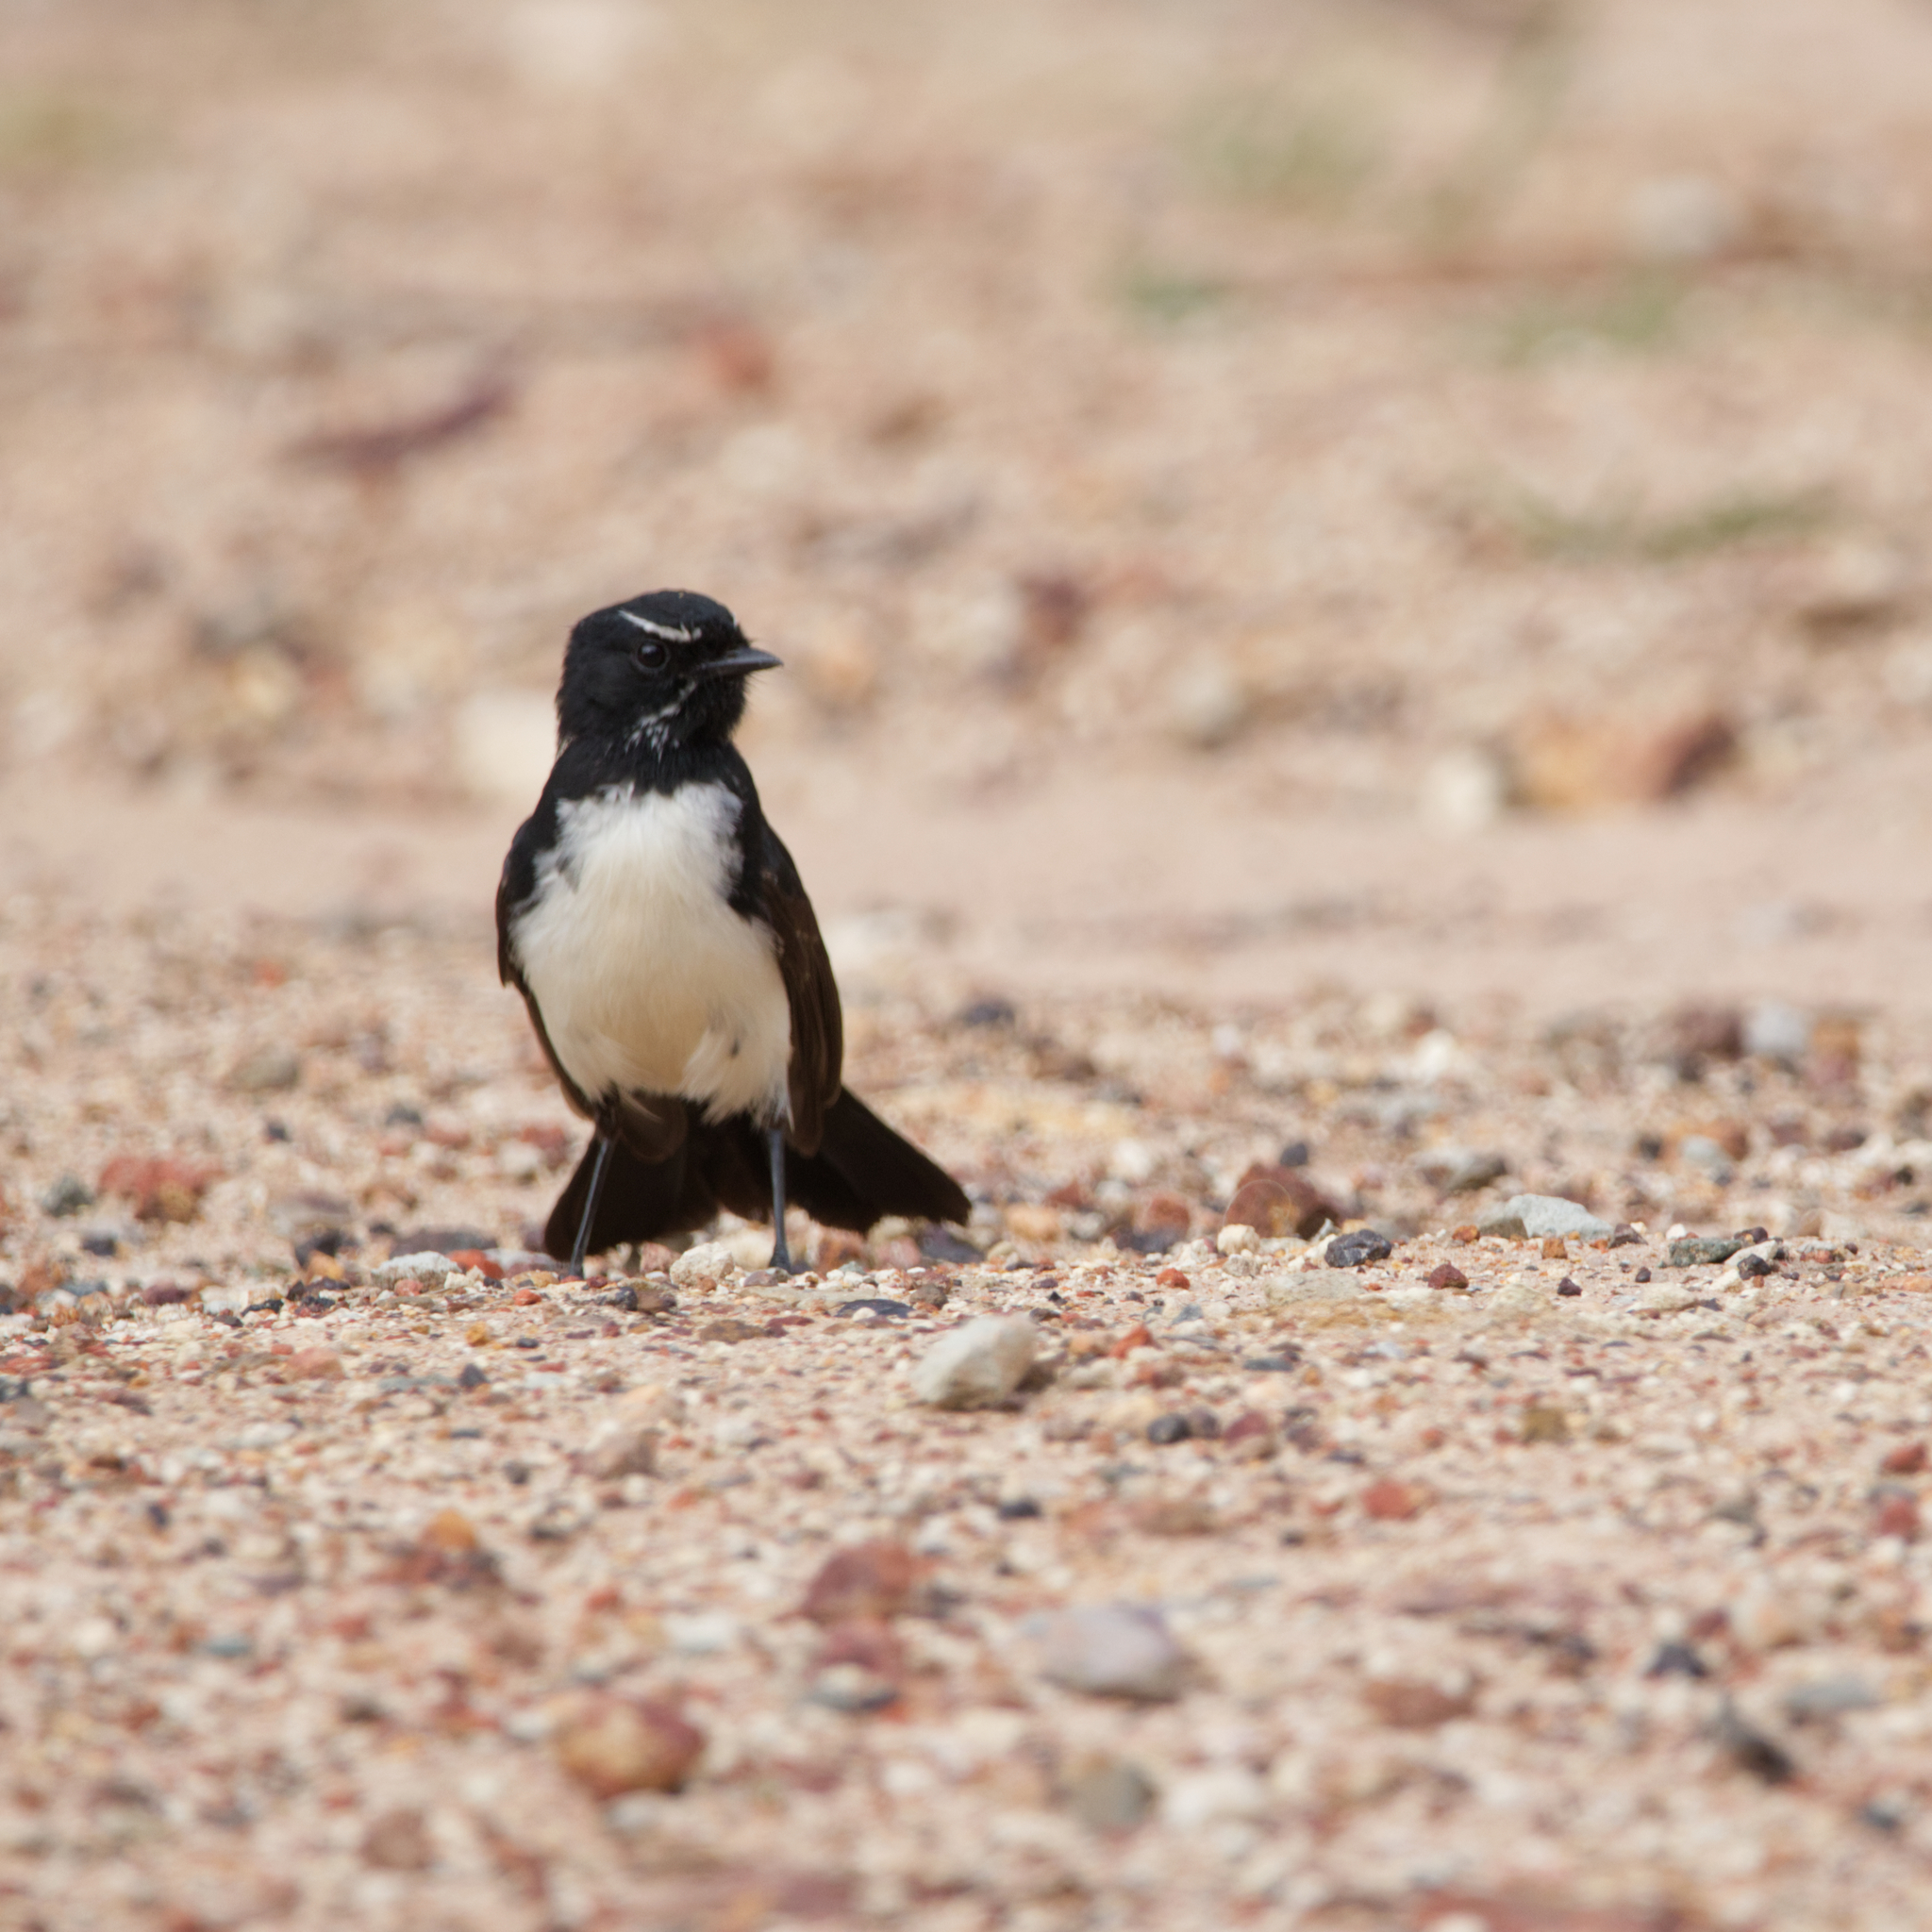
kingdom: Animalia
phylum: Chordata
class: Aves
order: Passeriformes
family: Rhipiduridae
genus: Rhipidura
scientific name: Rhipidura leucophrys
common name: Willie wagtail
